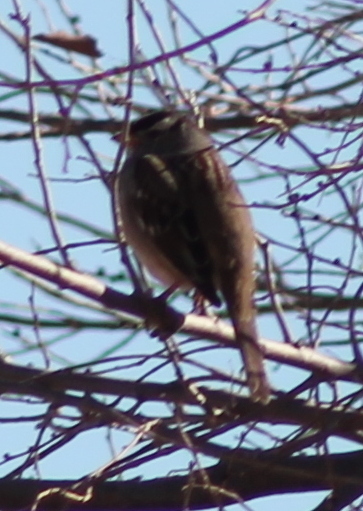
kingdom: Animalia
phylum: Chordata
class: Aves
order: Passeriformes
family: Passerellidae
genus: Zonotrichia
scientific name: Zonotrichia leucophrys
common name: White-crowned sparrow
